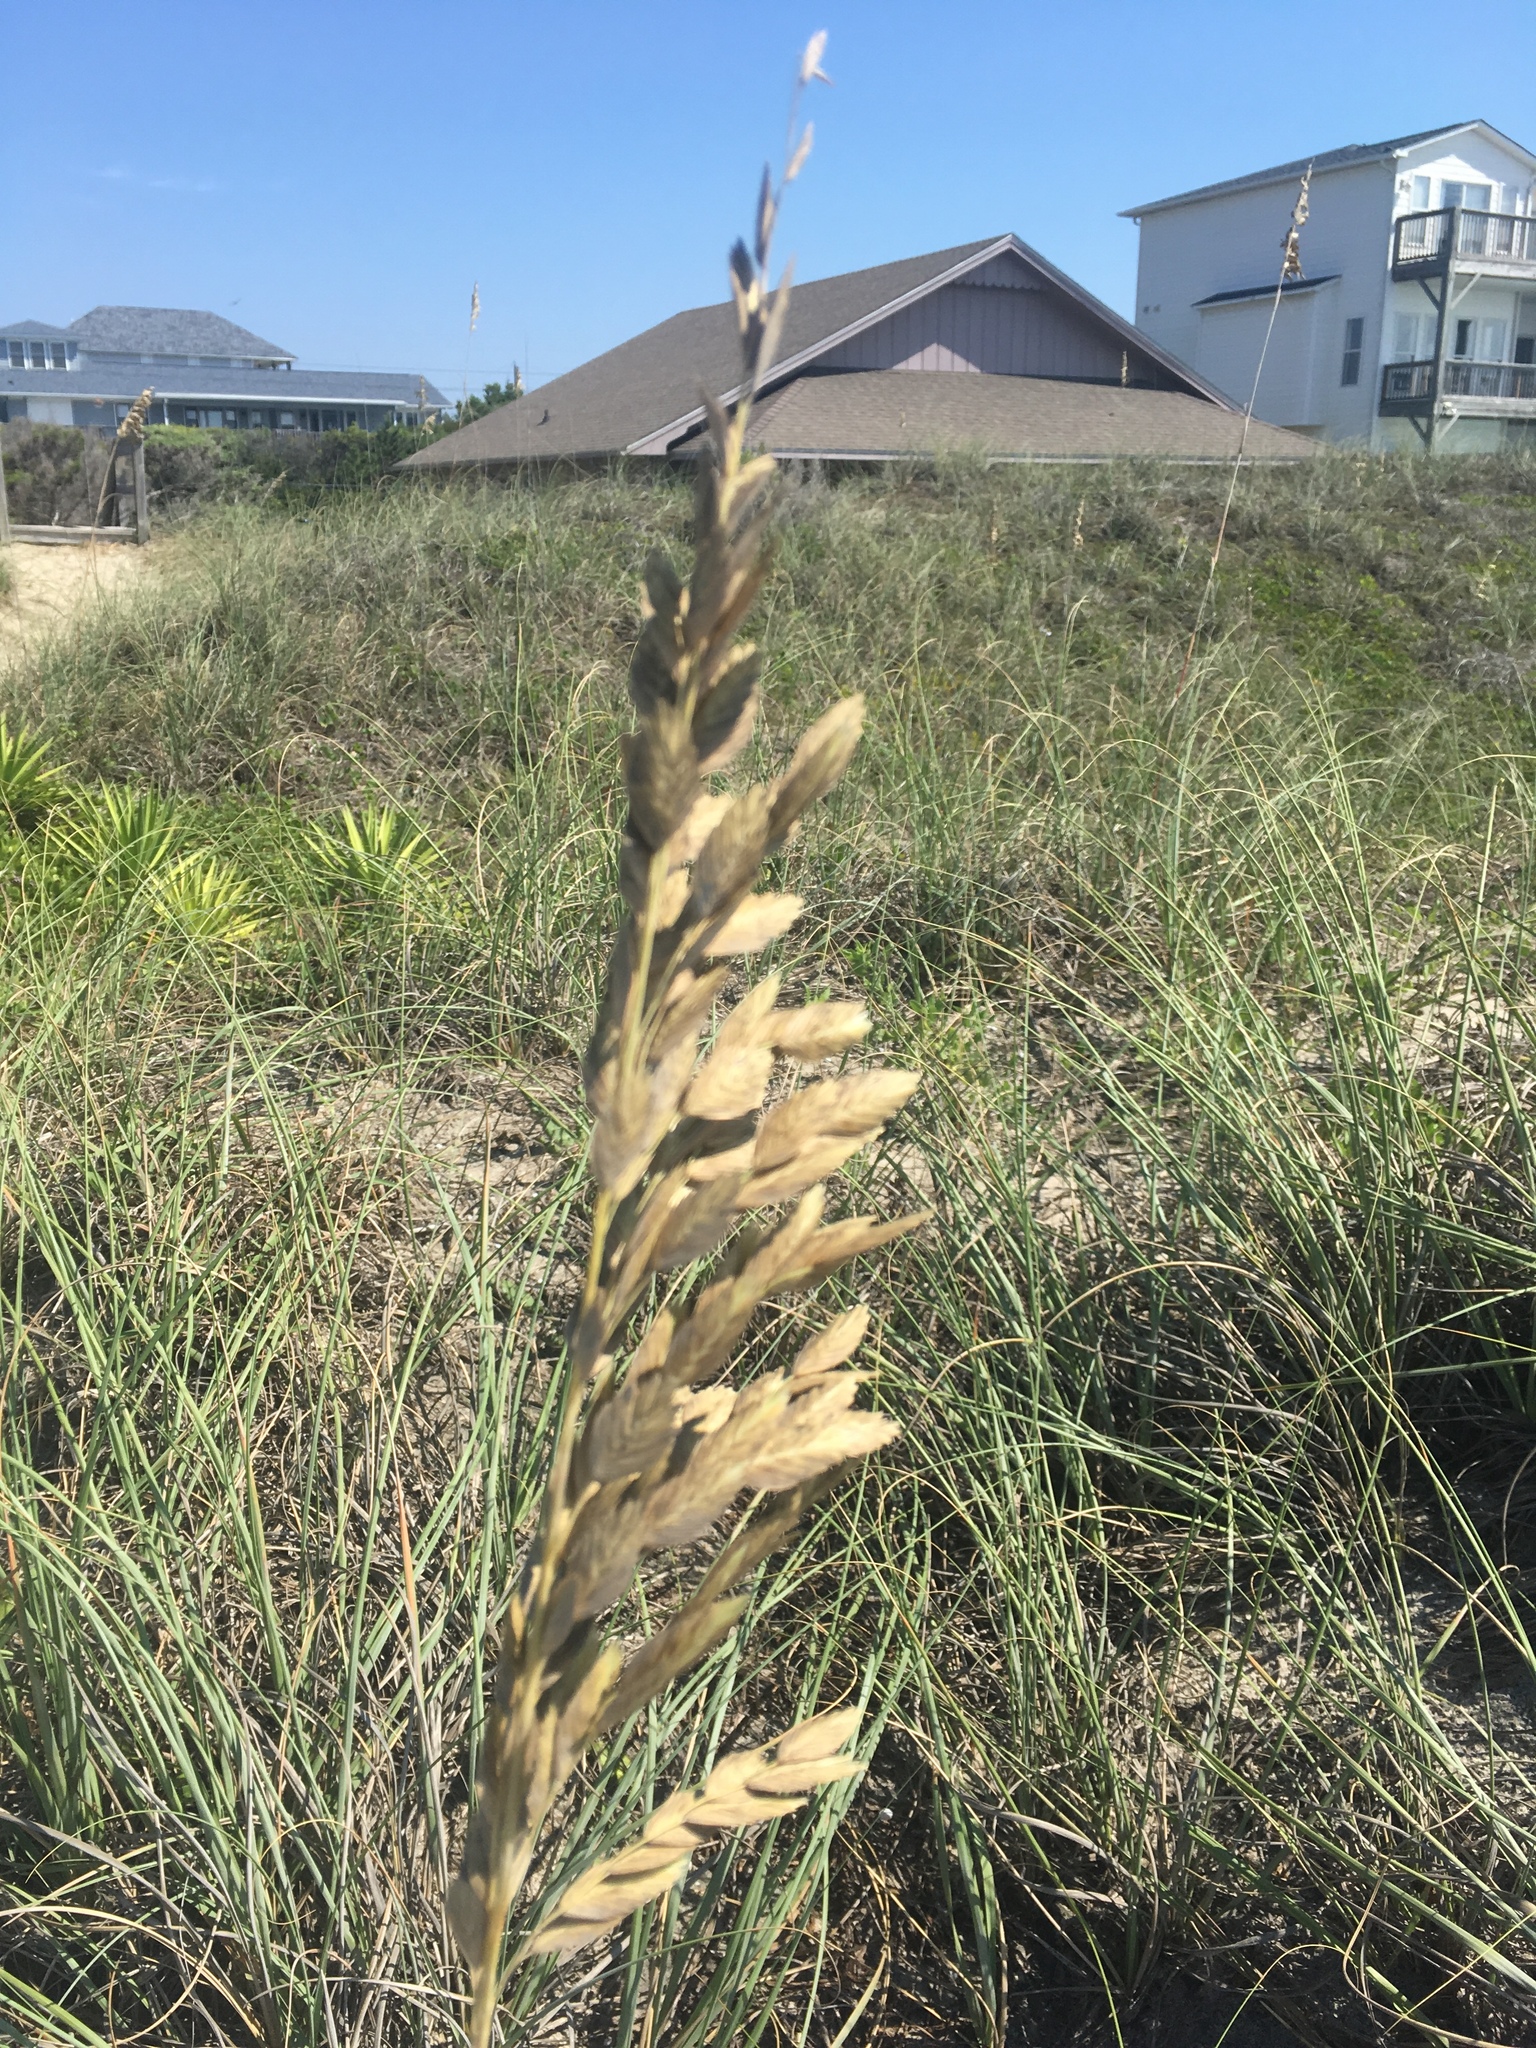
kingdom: Plantae
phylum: Tracheophyta
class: Liliopsida
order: Poales
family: Poaceae
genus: Uniola
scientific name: Uniola paniculata
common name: Seaside-oats
